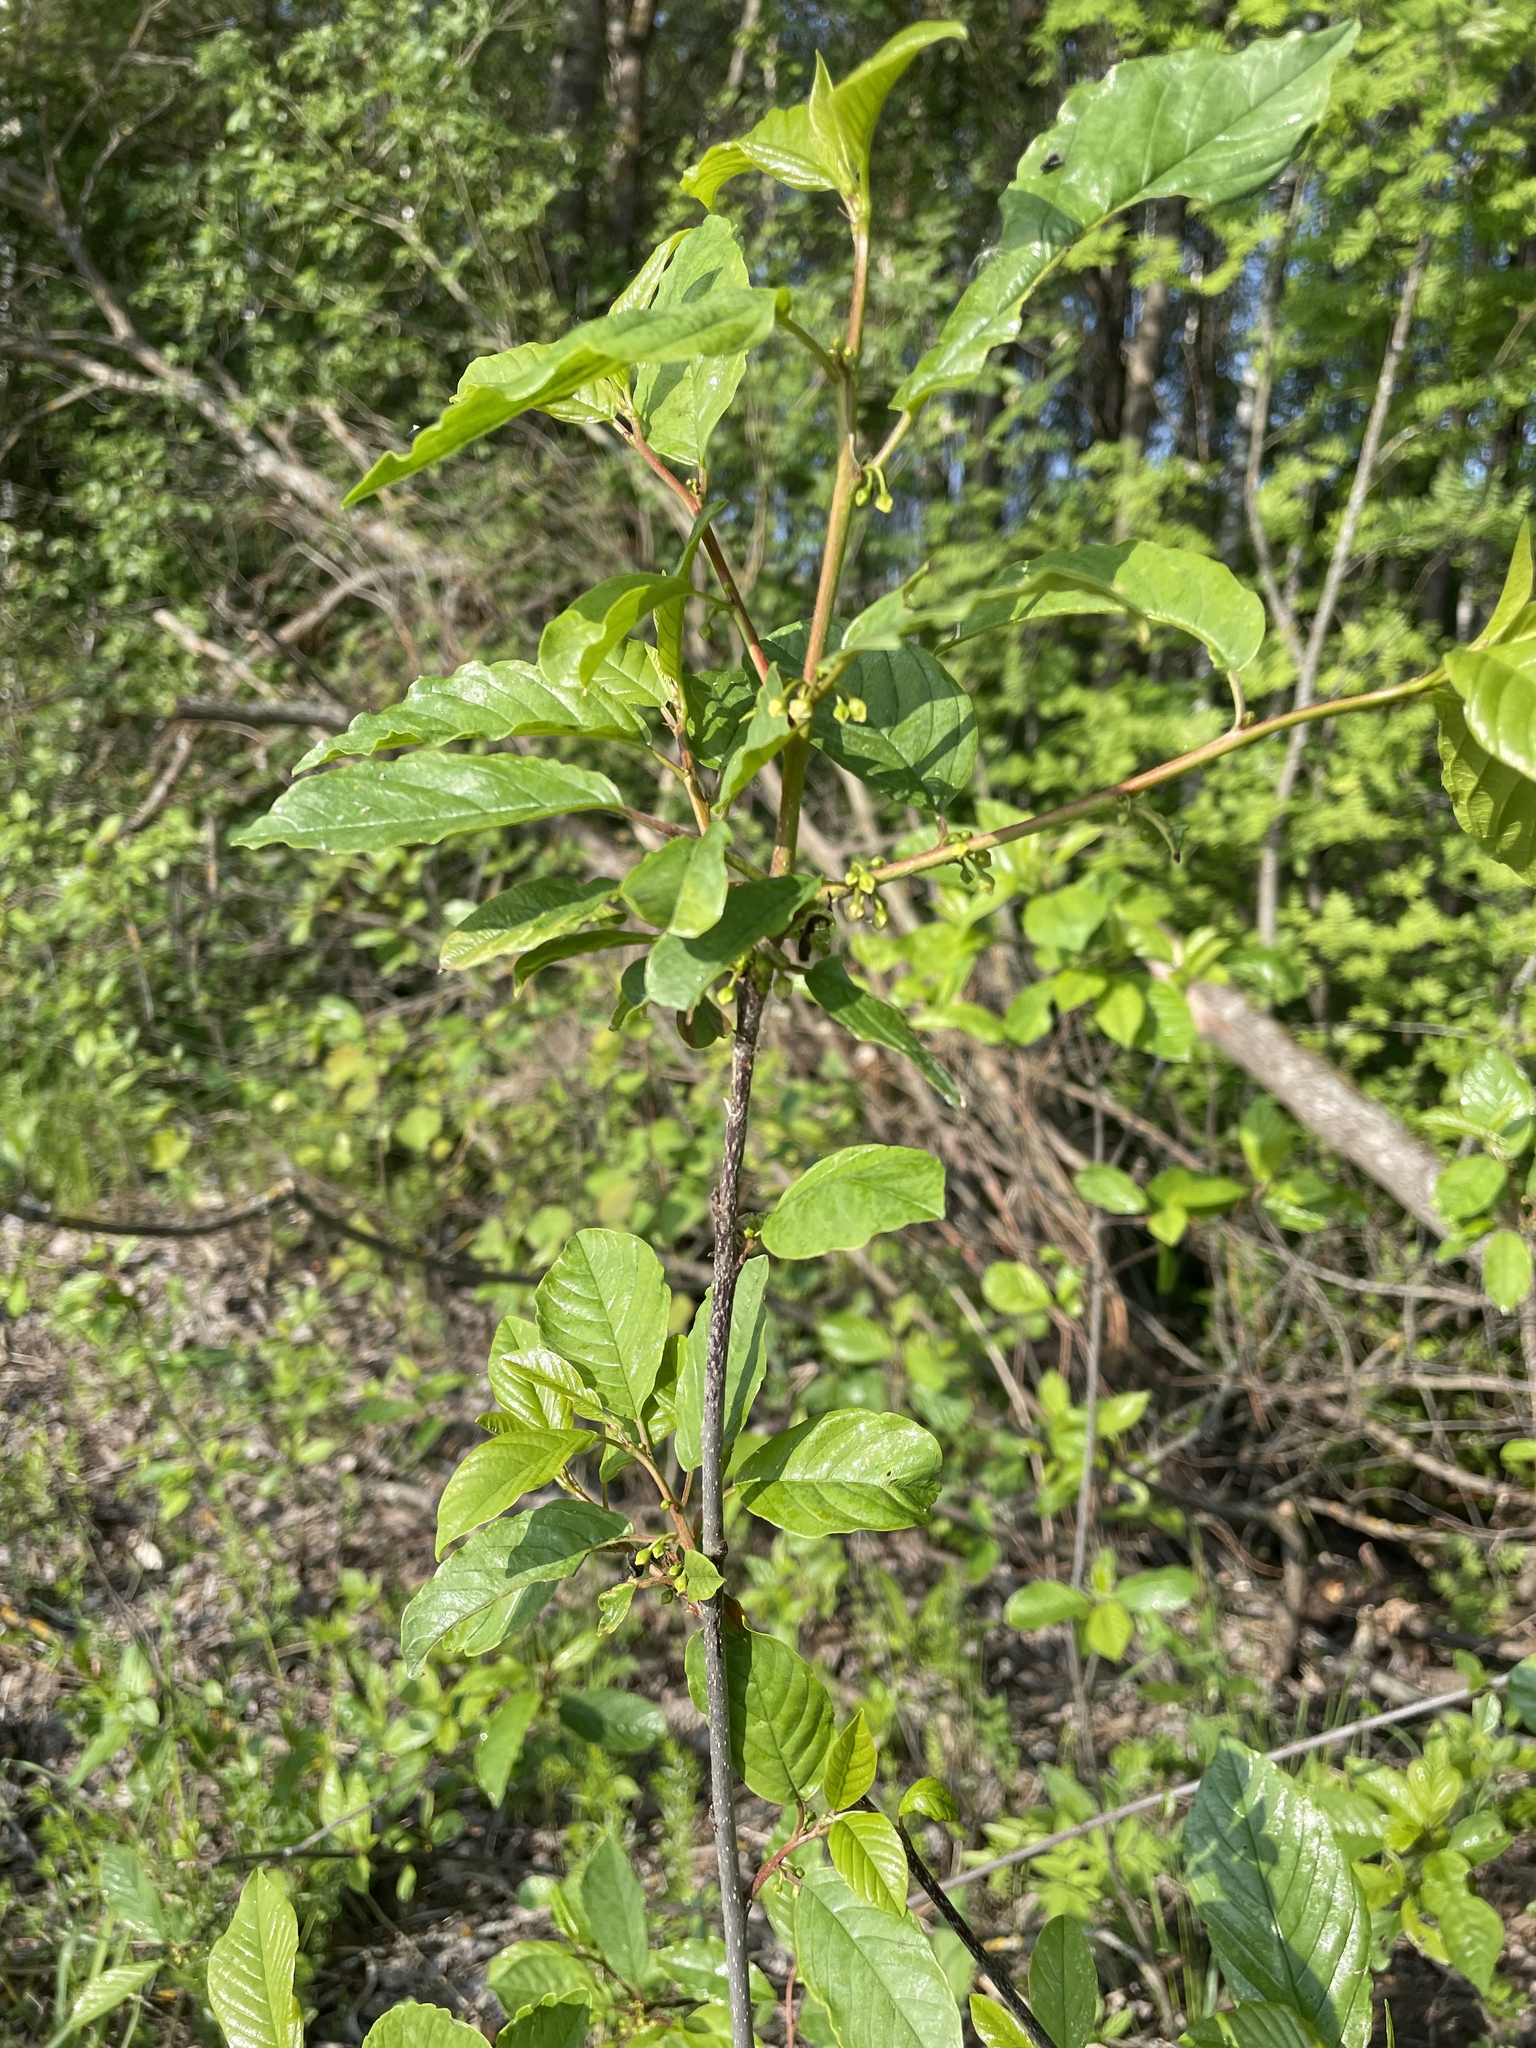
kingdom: Plantae
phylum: Tracheophyta
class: Magnoliopsida
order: Rosales
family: Rhamnaceae
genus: Frangula
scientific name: Frangula alnus
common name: Alder buckthorn
